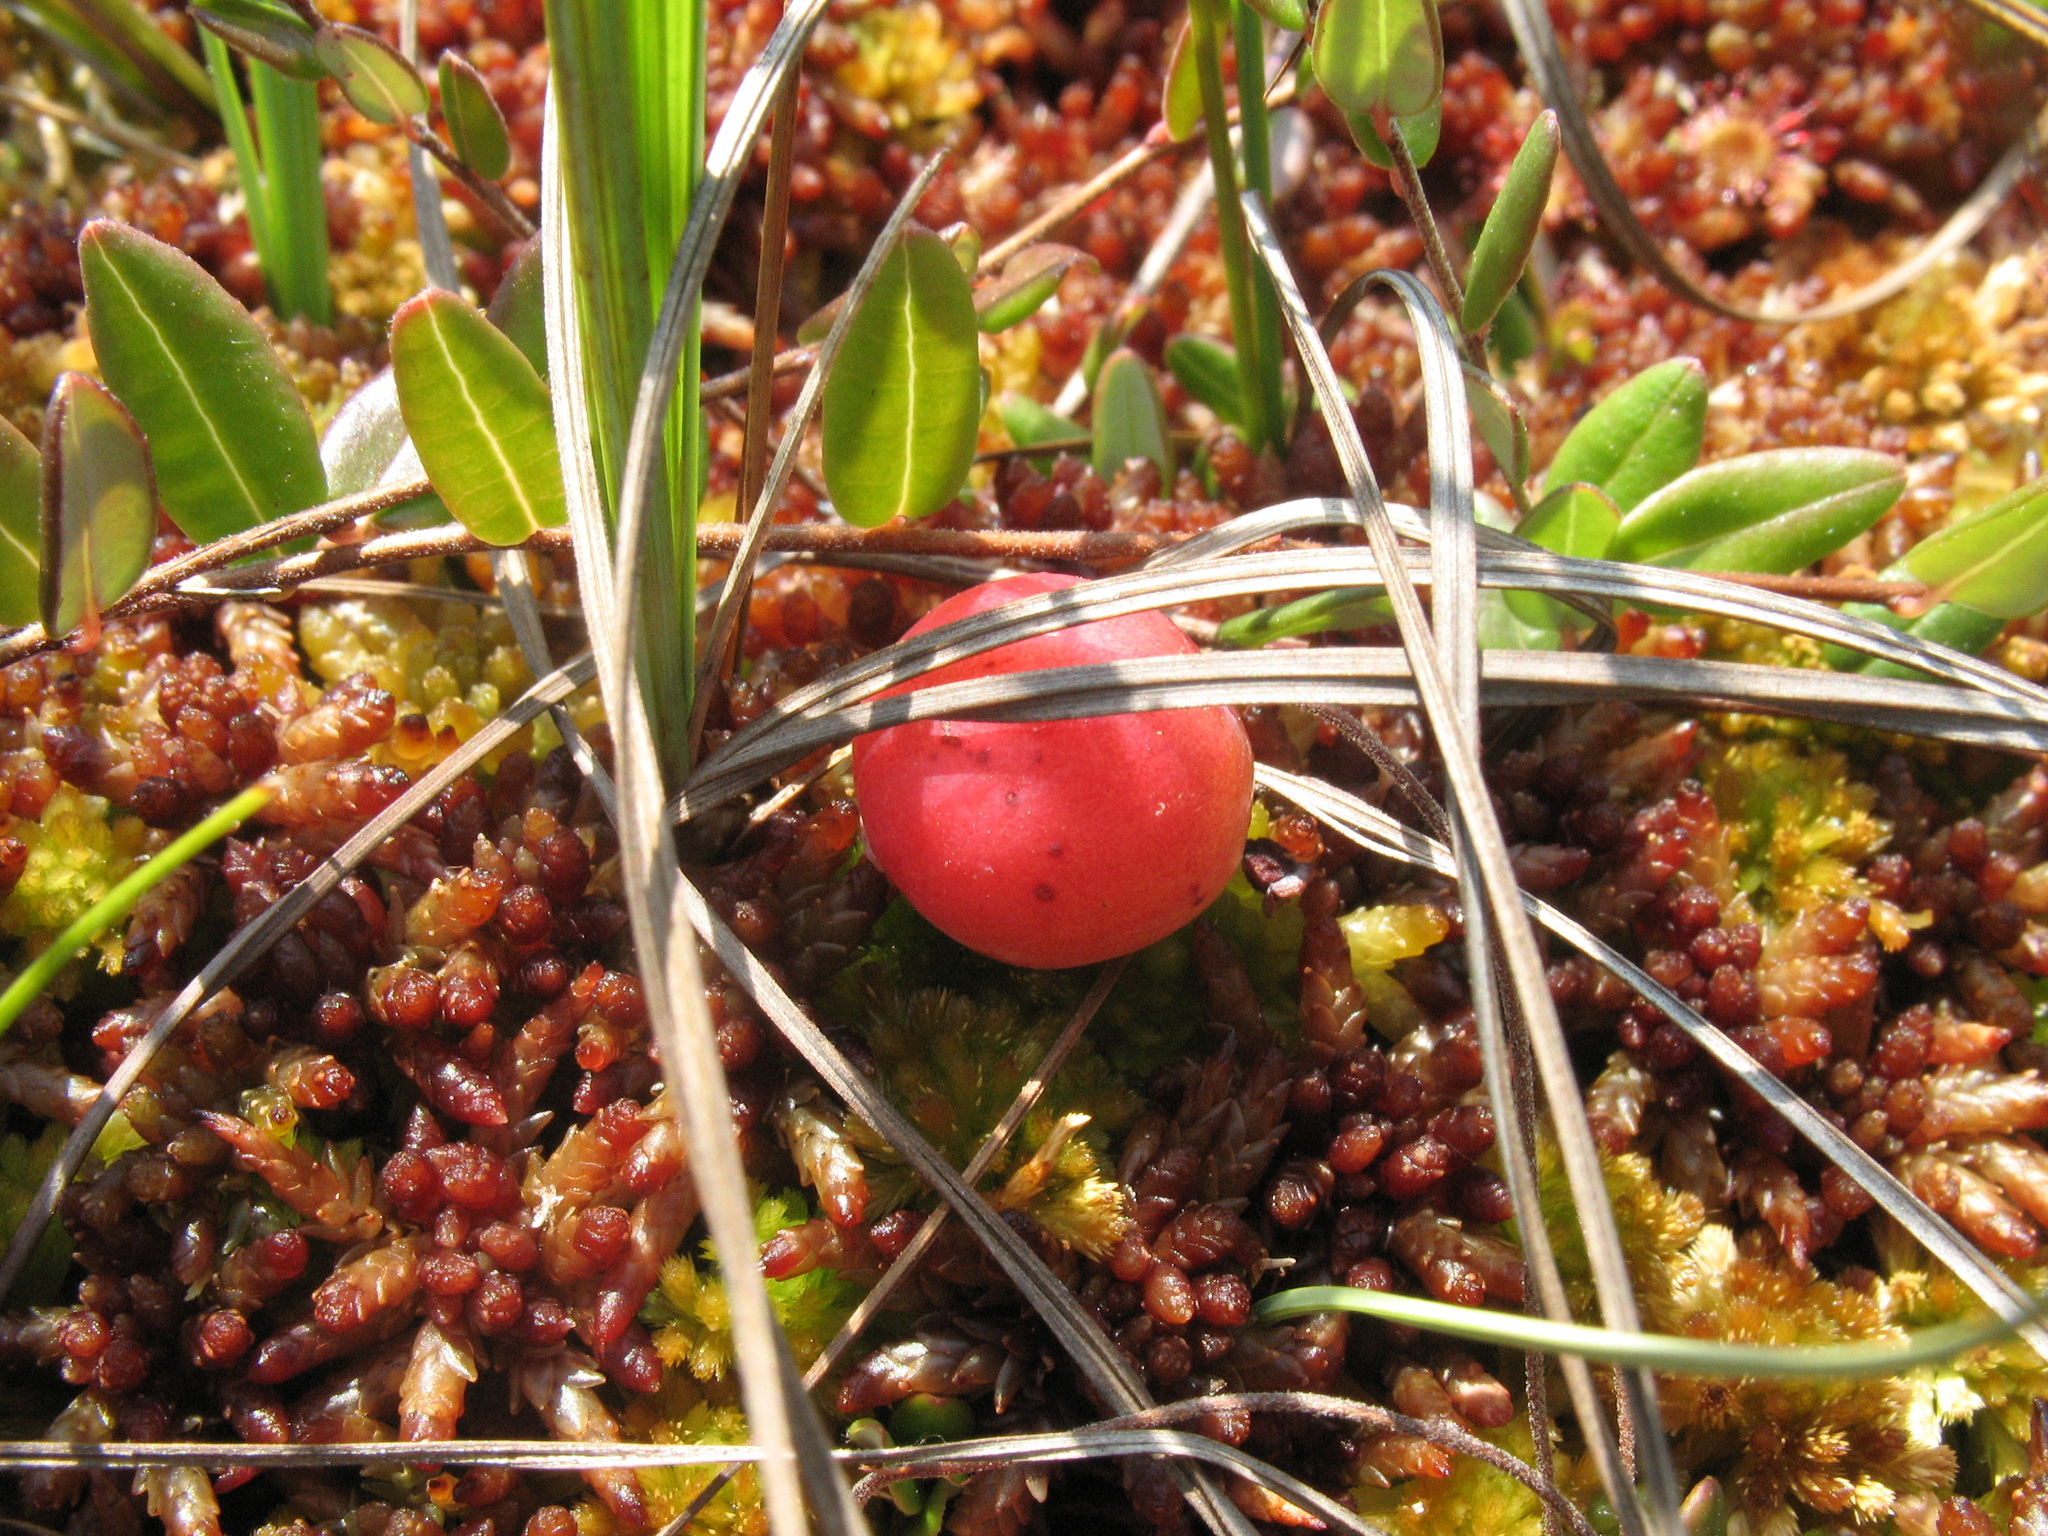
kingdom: Plantae
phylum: Tracheophyta
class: Magnoliopsida
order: Ericales
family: Ericaceae
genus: Vaccinium
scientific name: Vaccinium oxycoccos
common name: Cranberry
